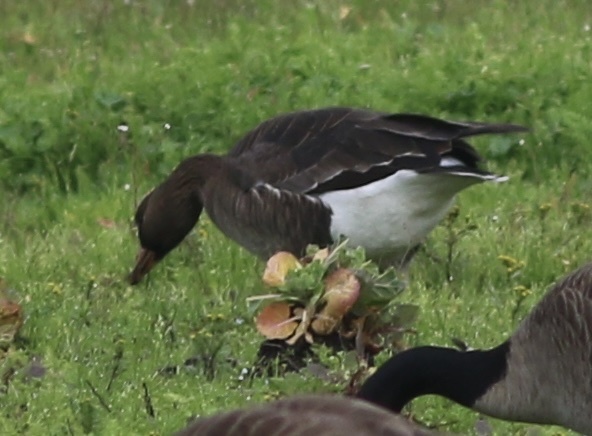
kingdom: Animalia
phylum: Chordata
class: Aves
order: Anseriformes
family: Anatidae
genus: Anser
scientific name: Anser albifrons
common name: Greater white-fronted goose
